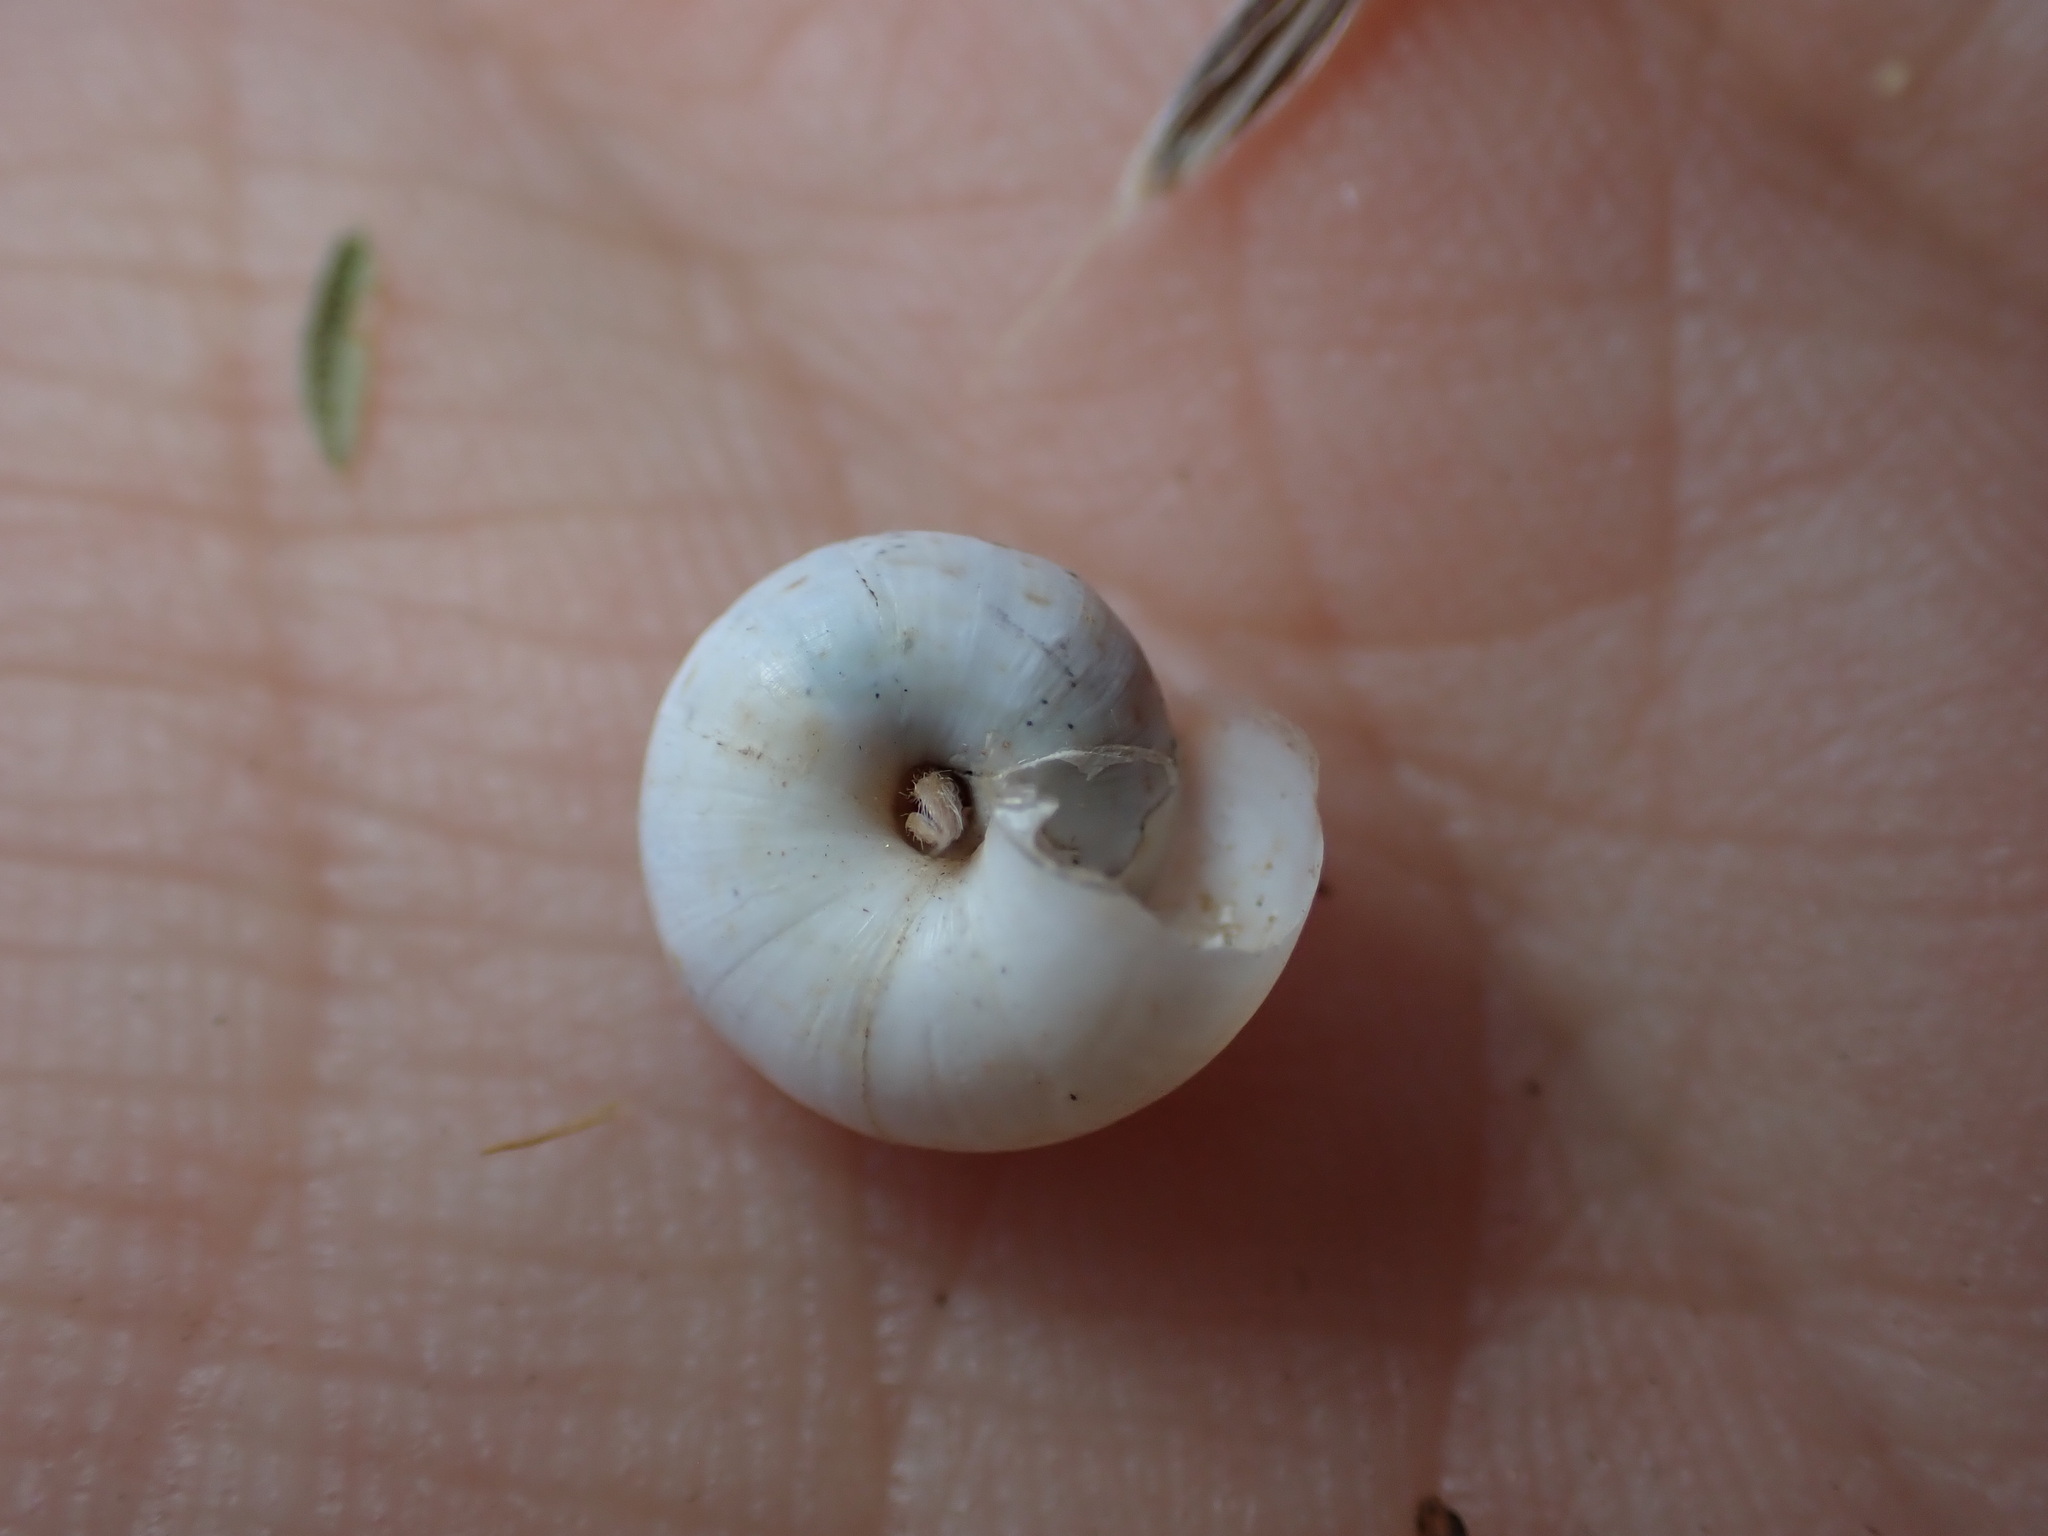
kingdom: Animalia
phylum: Mollusca
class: Gastropoda
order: Stylommatophora
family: Geomitridae
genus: Xeropicta
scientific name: Xeropicta derbentina
